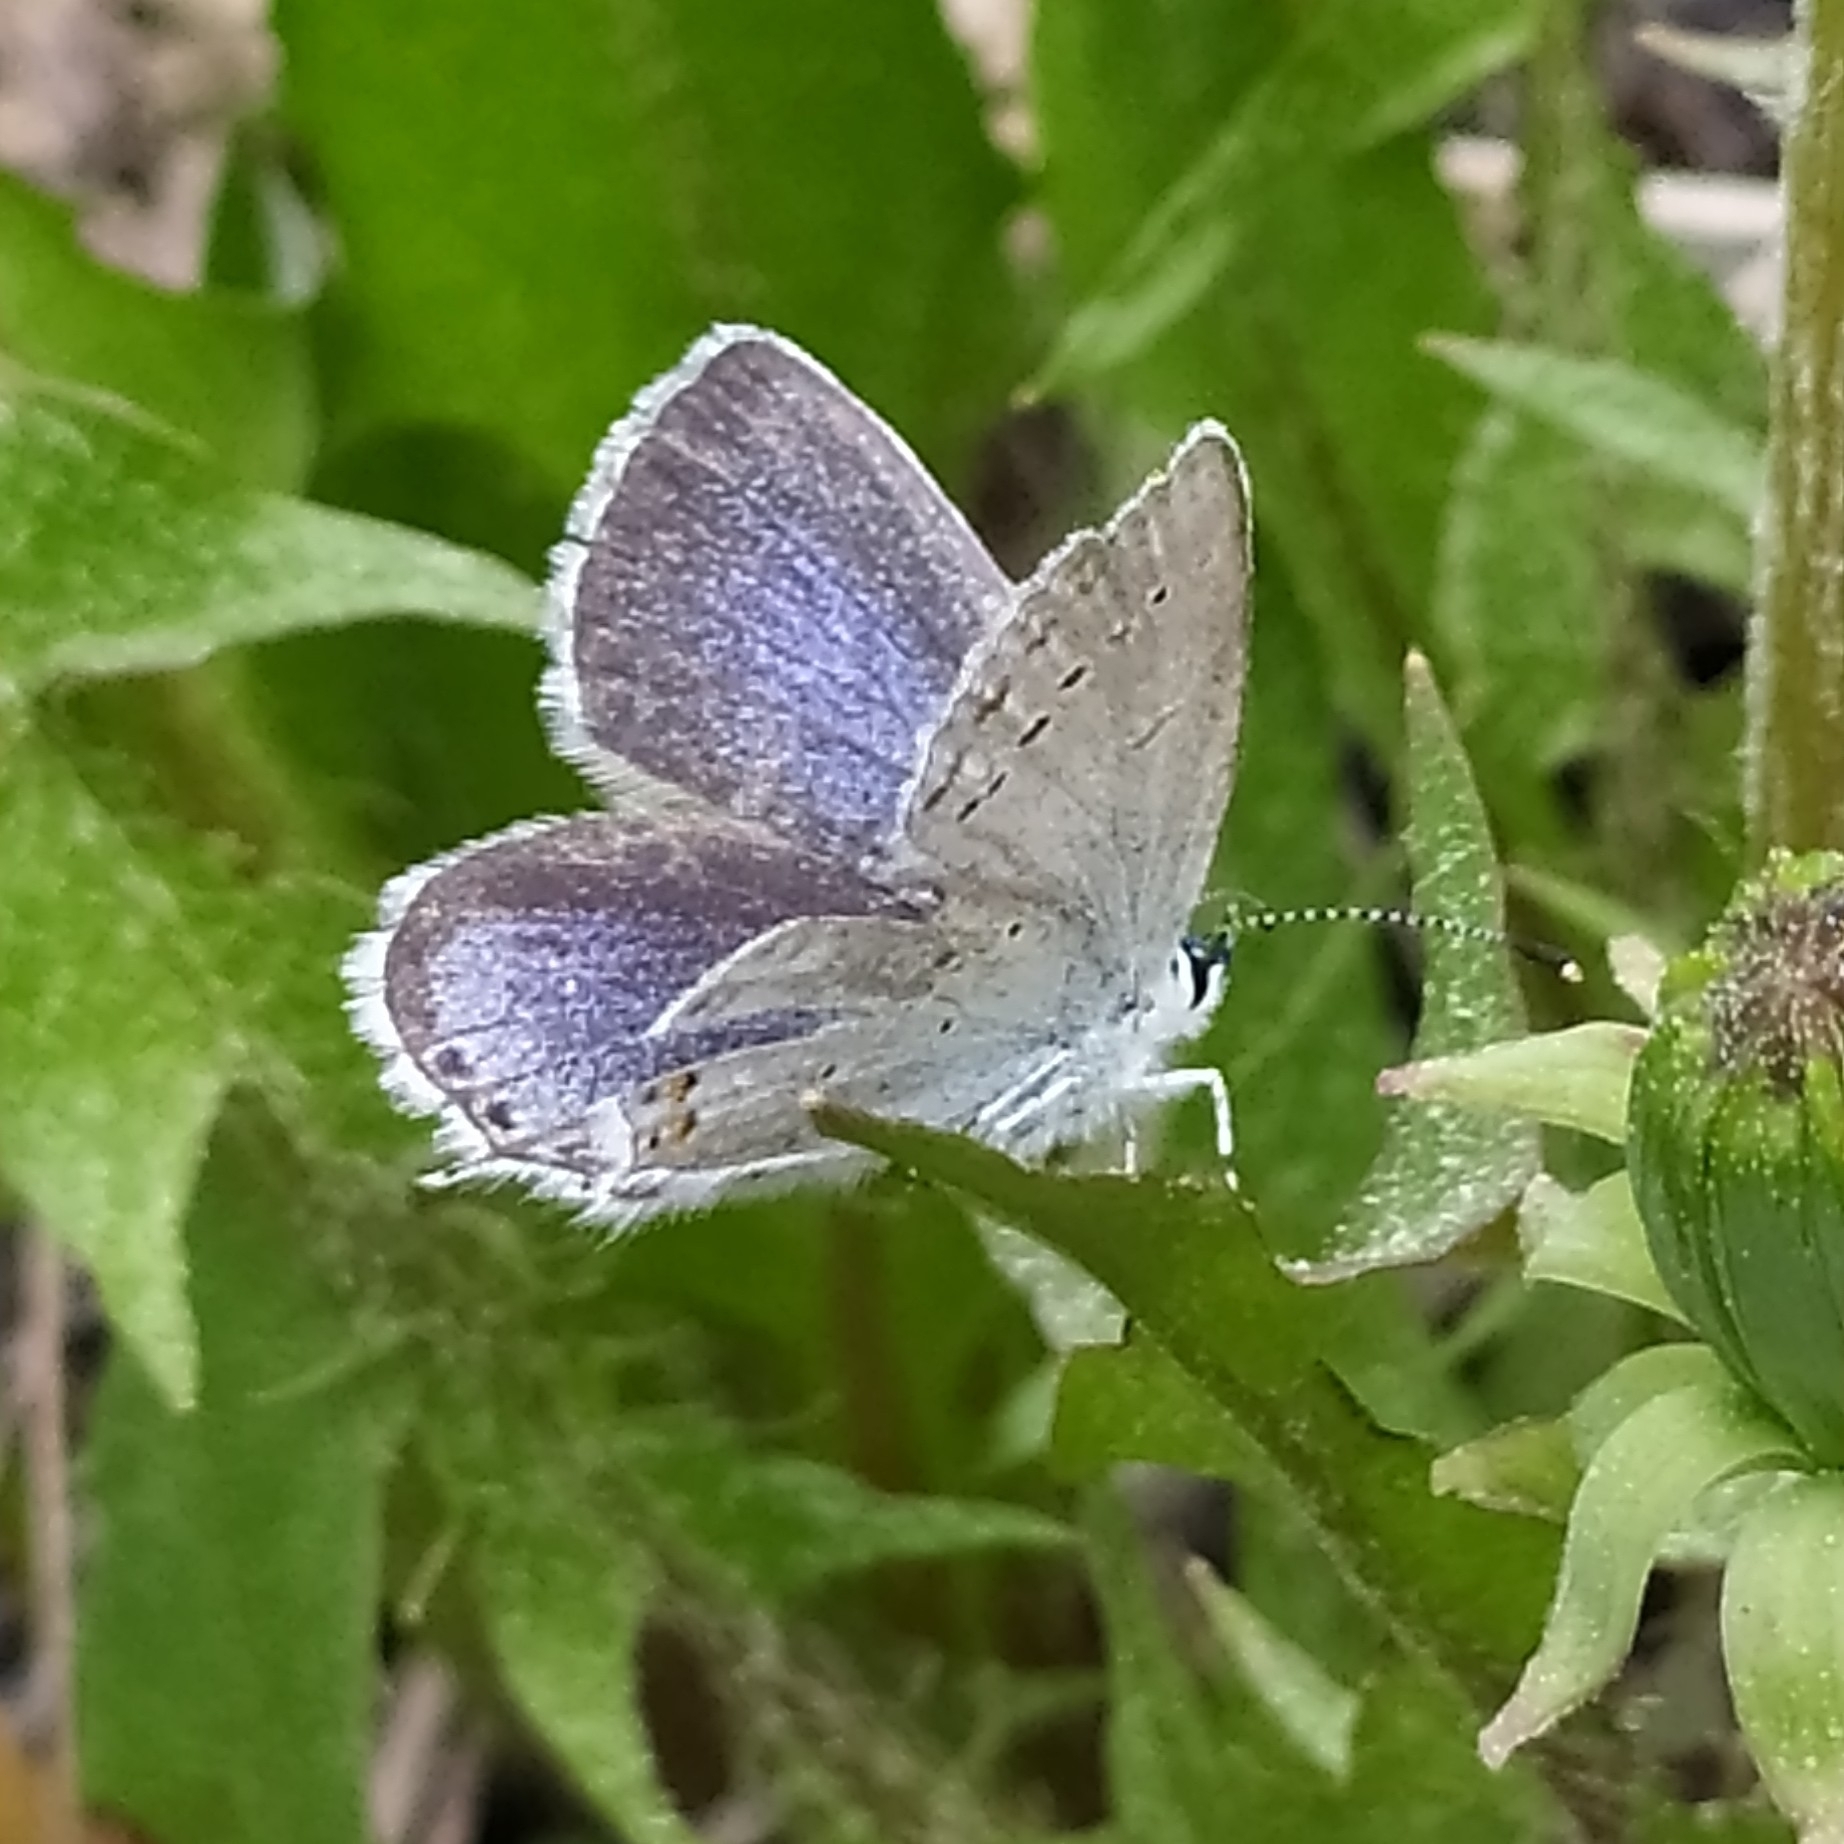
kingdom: Animalia
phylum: Arthropoda
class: Insecta
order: Lepidoptera
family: Lycaenidae
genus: Elkalyce
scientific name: Elkalyce argiades
